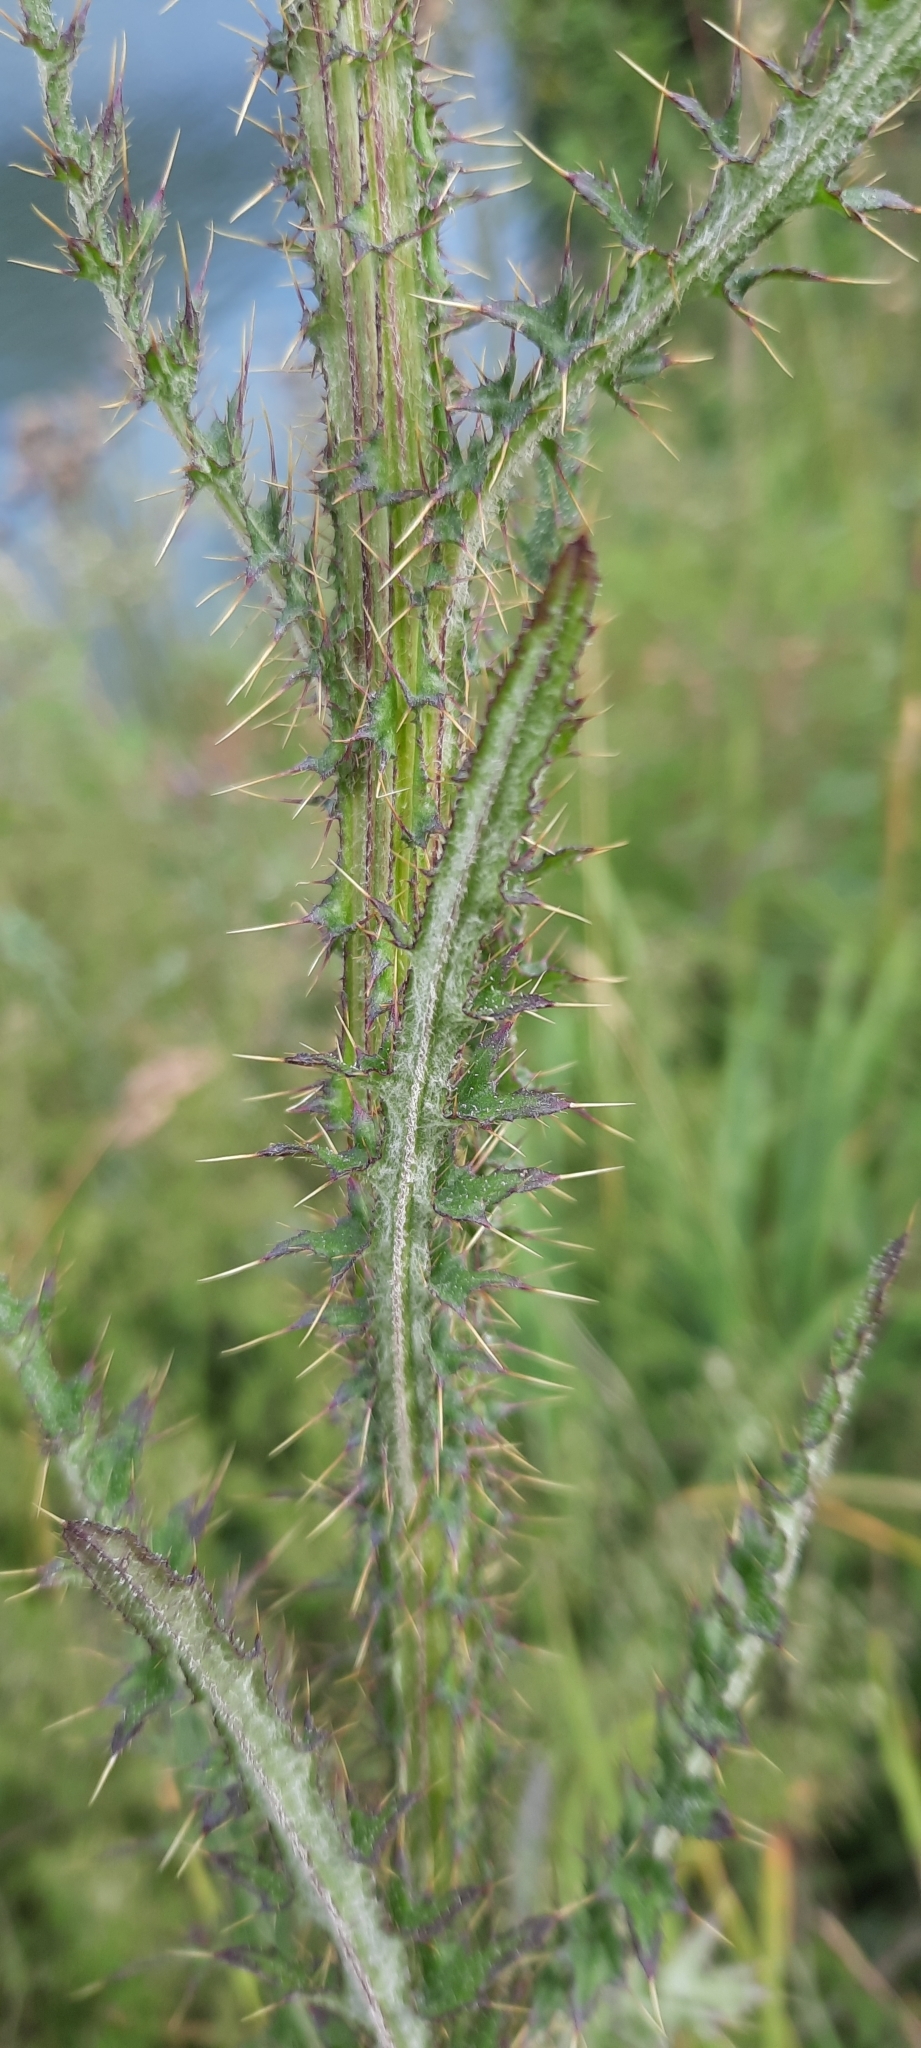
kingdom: Plantae
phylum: Tracheophyta
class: Magnoliopsida
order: Asterales
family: Asteraceae
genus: Cirsium
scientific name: Cirsium palustre
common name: Marsh thistle
